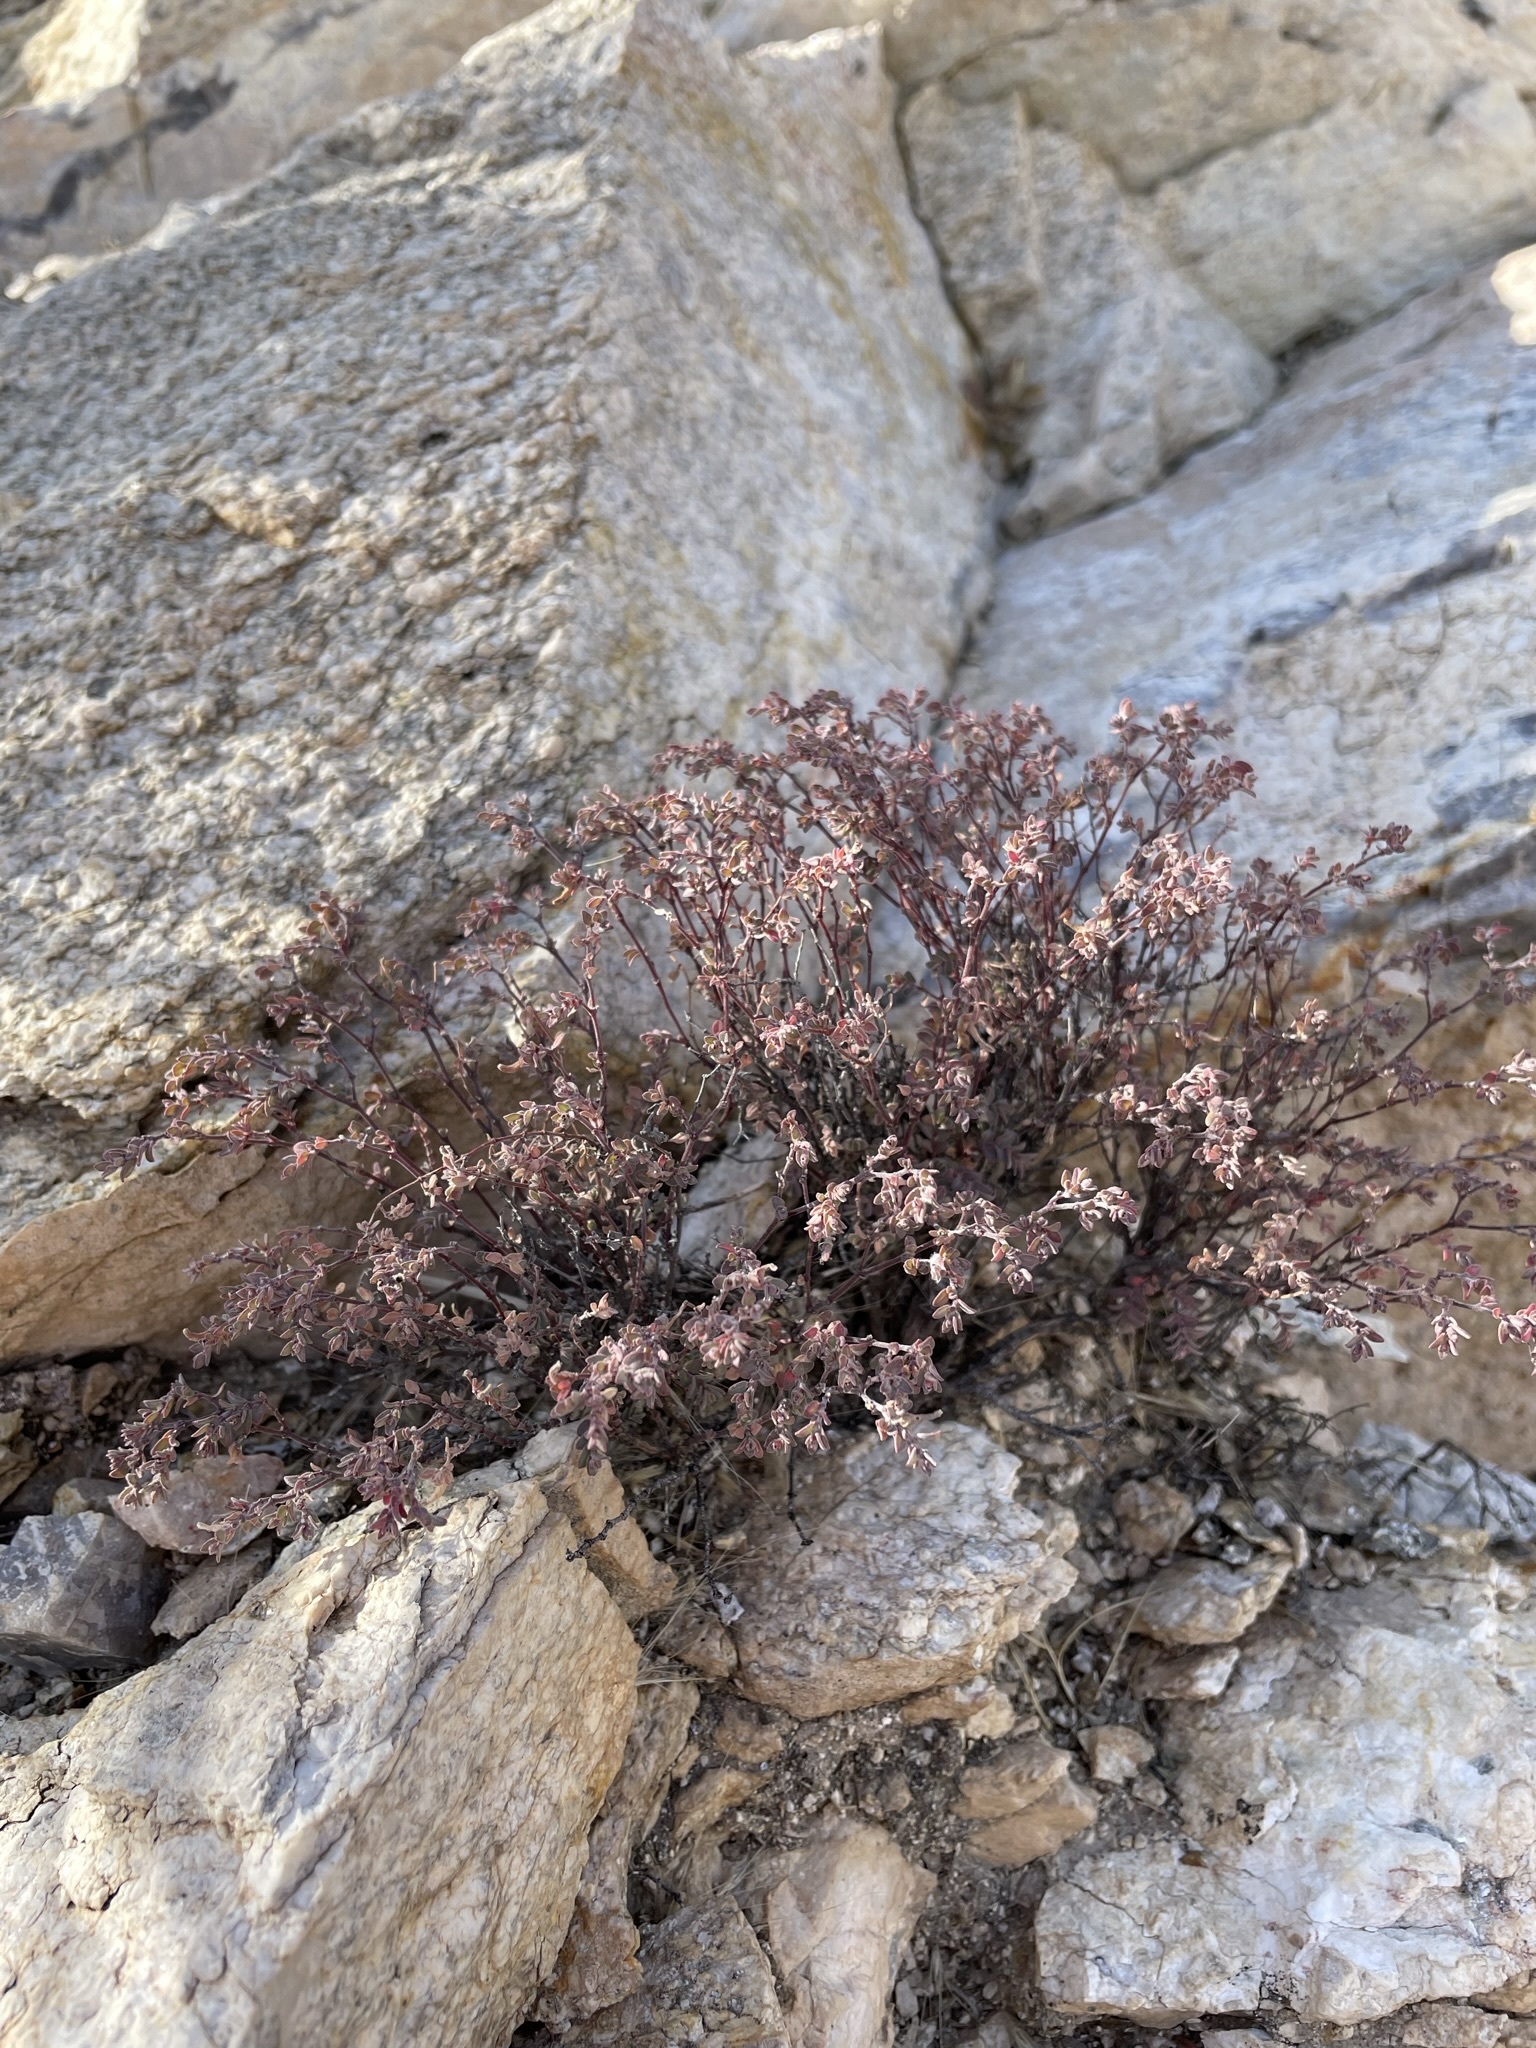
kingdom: Plantae
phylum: Tracheophyta
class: Magnoliopsida
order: Malpighiales
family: Euphorbiaceae
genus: Euphorbia
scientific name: Euphorbia melanadenia
